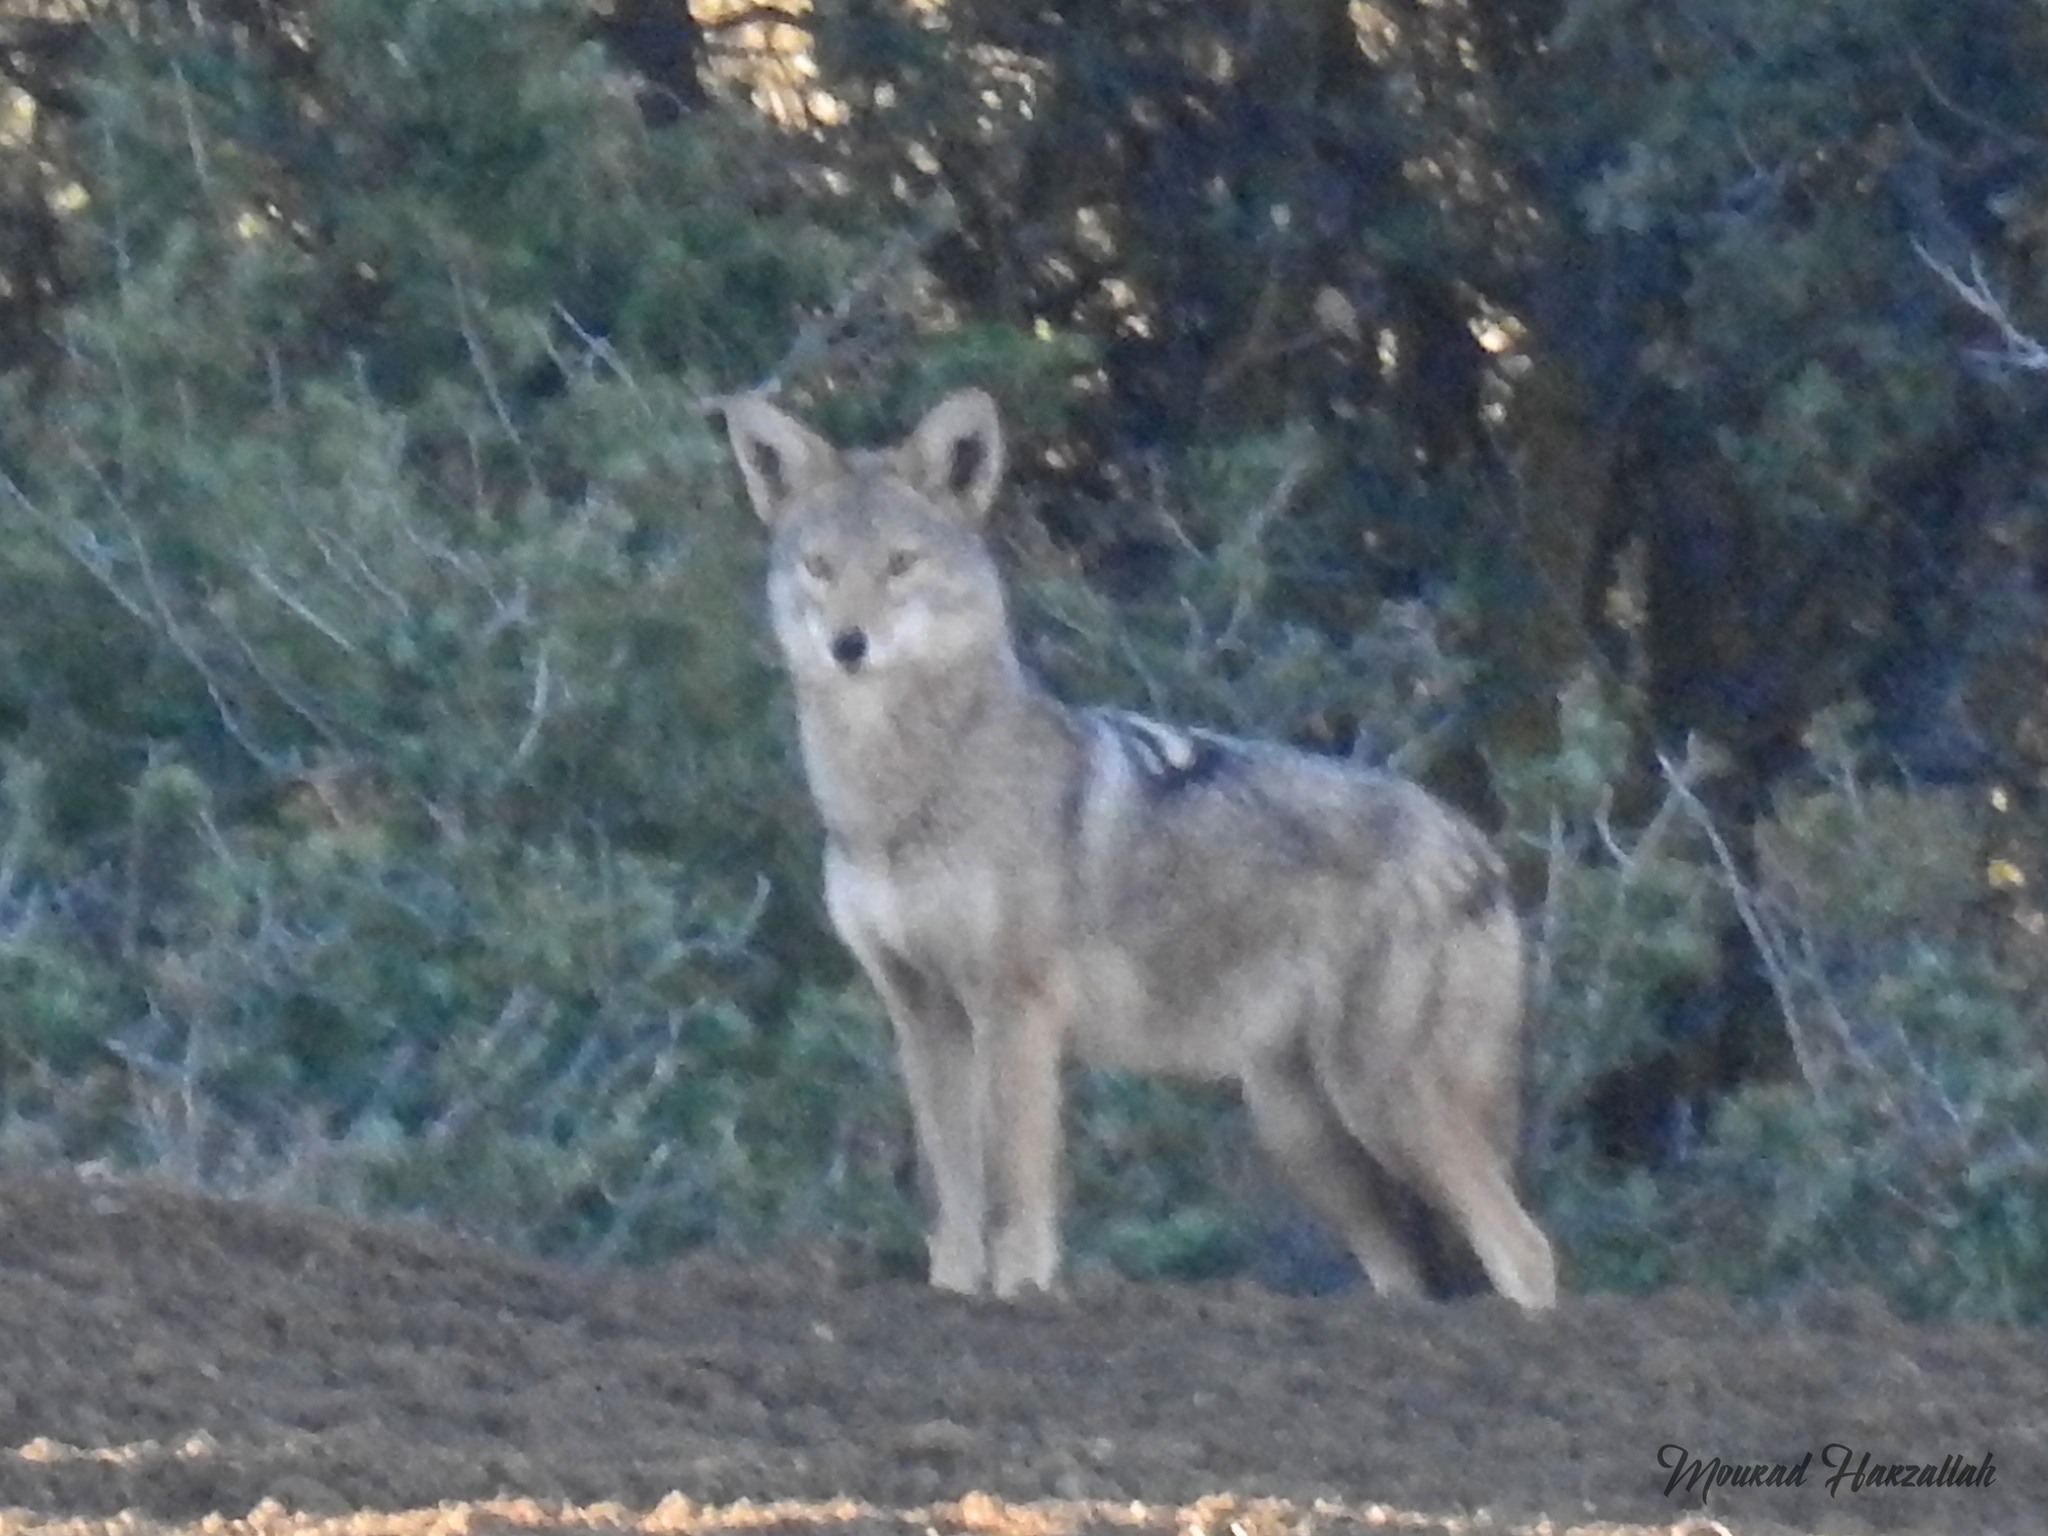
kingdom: Animalia
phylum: Chordata
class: Mammalia
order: Carnivora
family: Canidae
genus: Canis
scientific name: Canis lupaster
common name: African golden wolf
